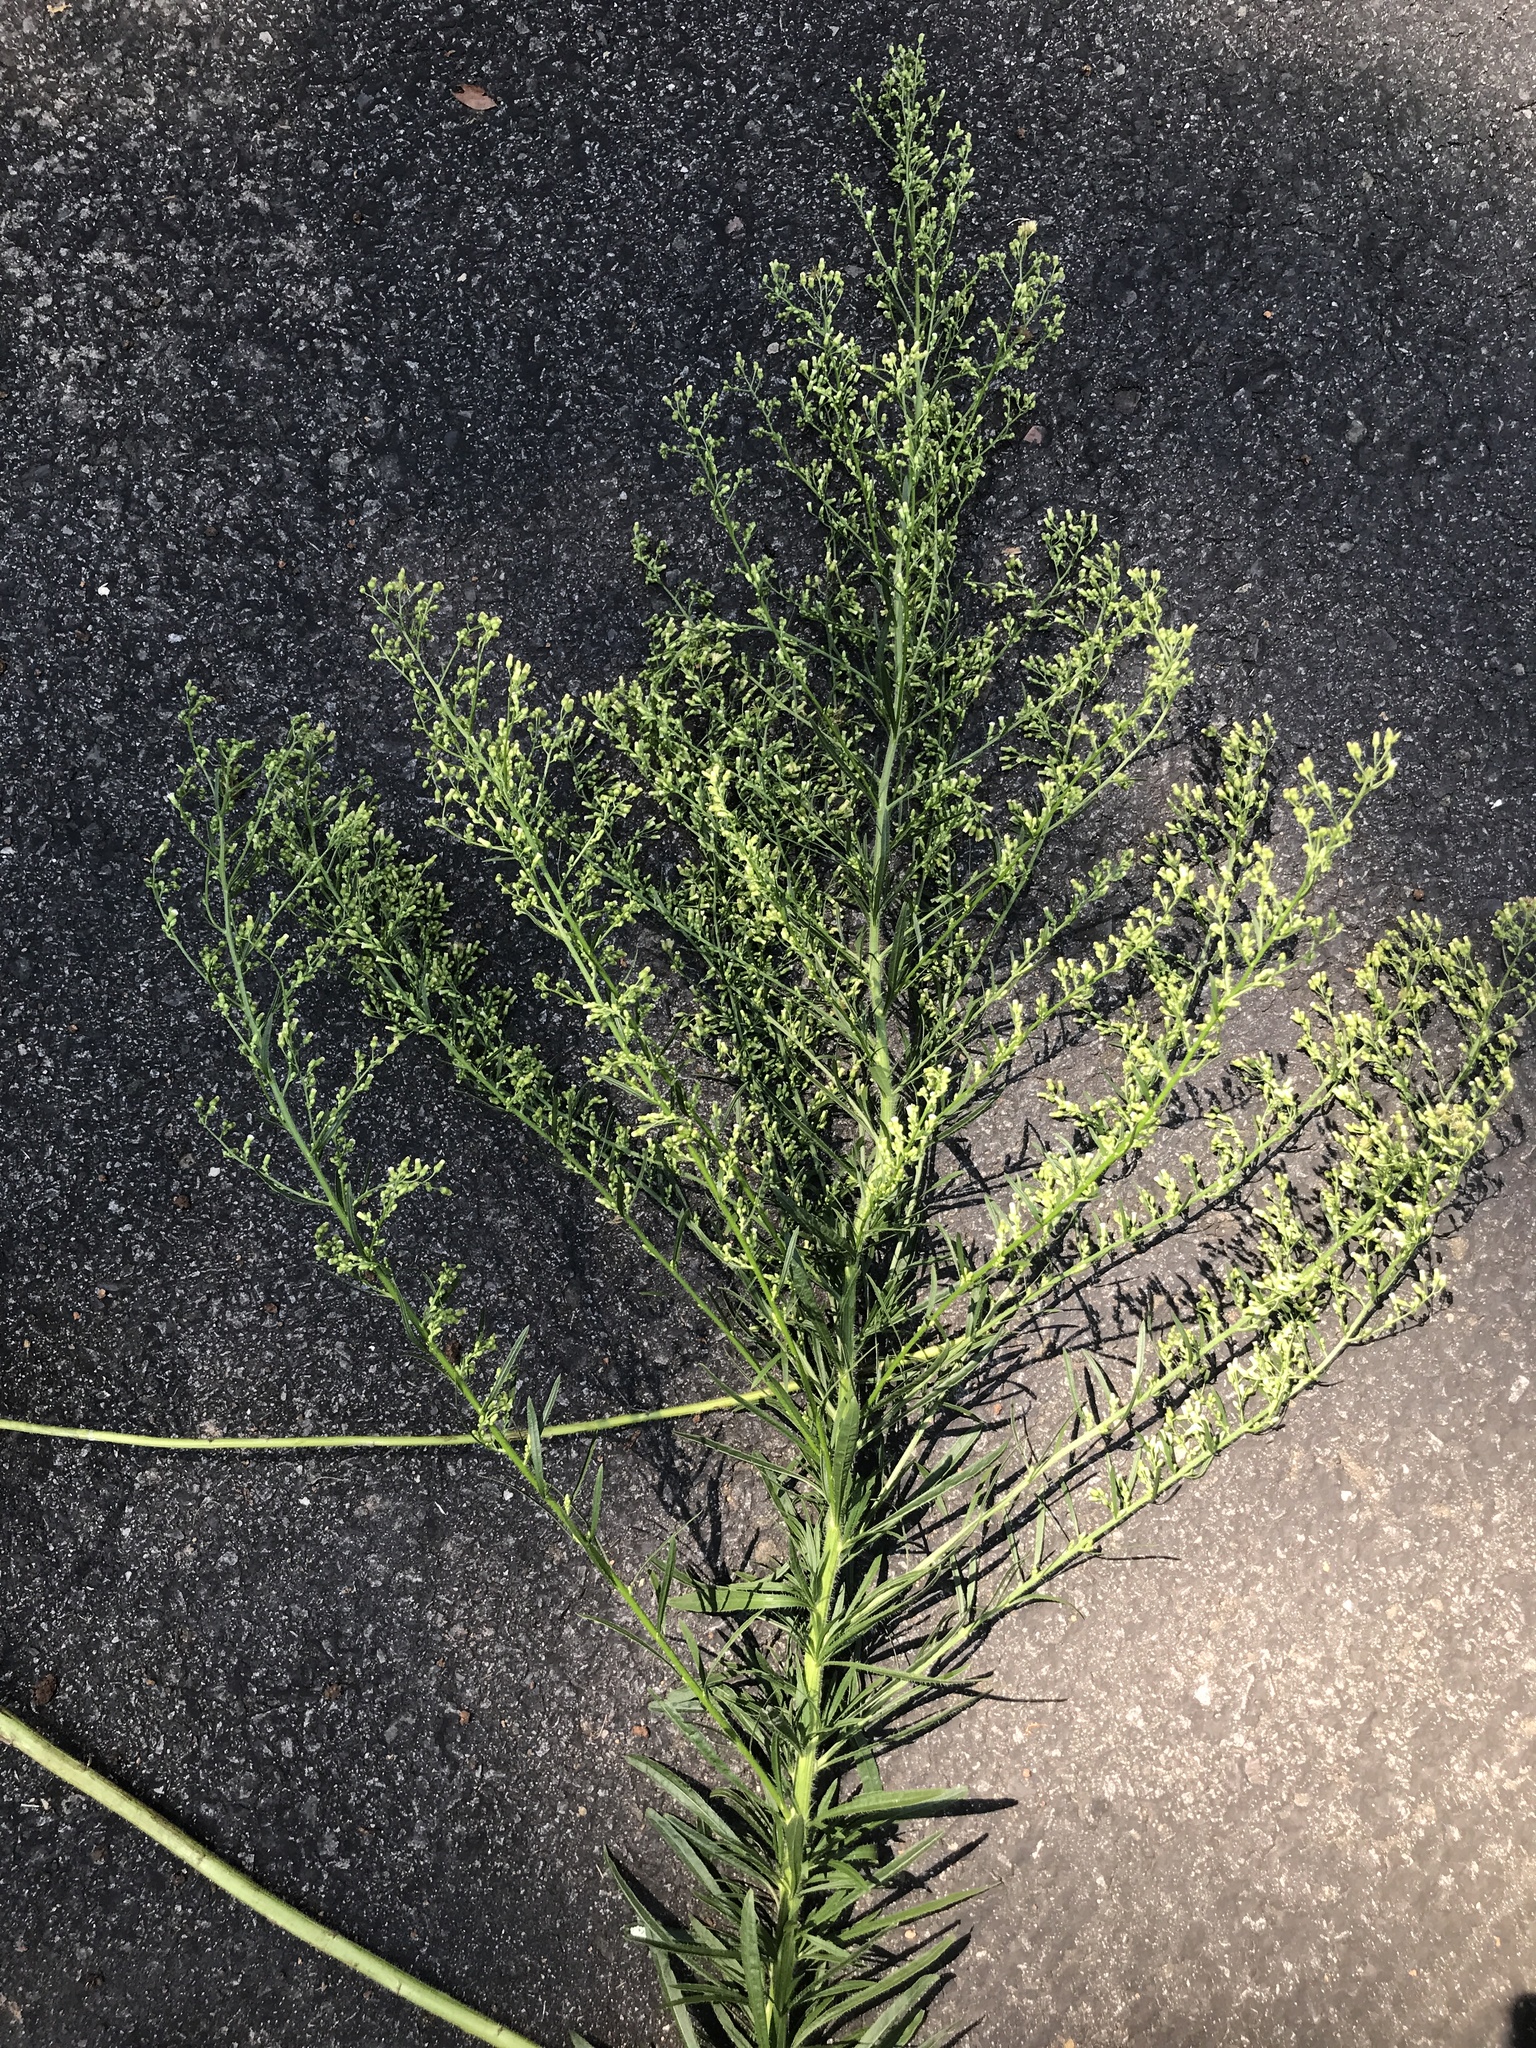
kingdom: Plantae
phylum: Tracheophyta
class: Magnoliopsida
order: Asterales
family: Asteraceae
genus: Erigeron
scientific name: Erigeron canadensis
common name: Canadian fleabane
